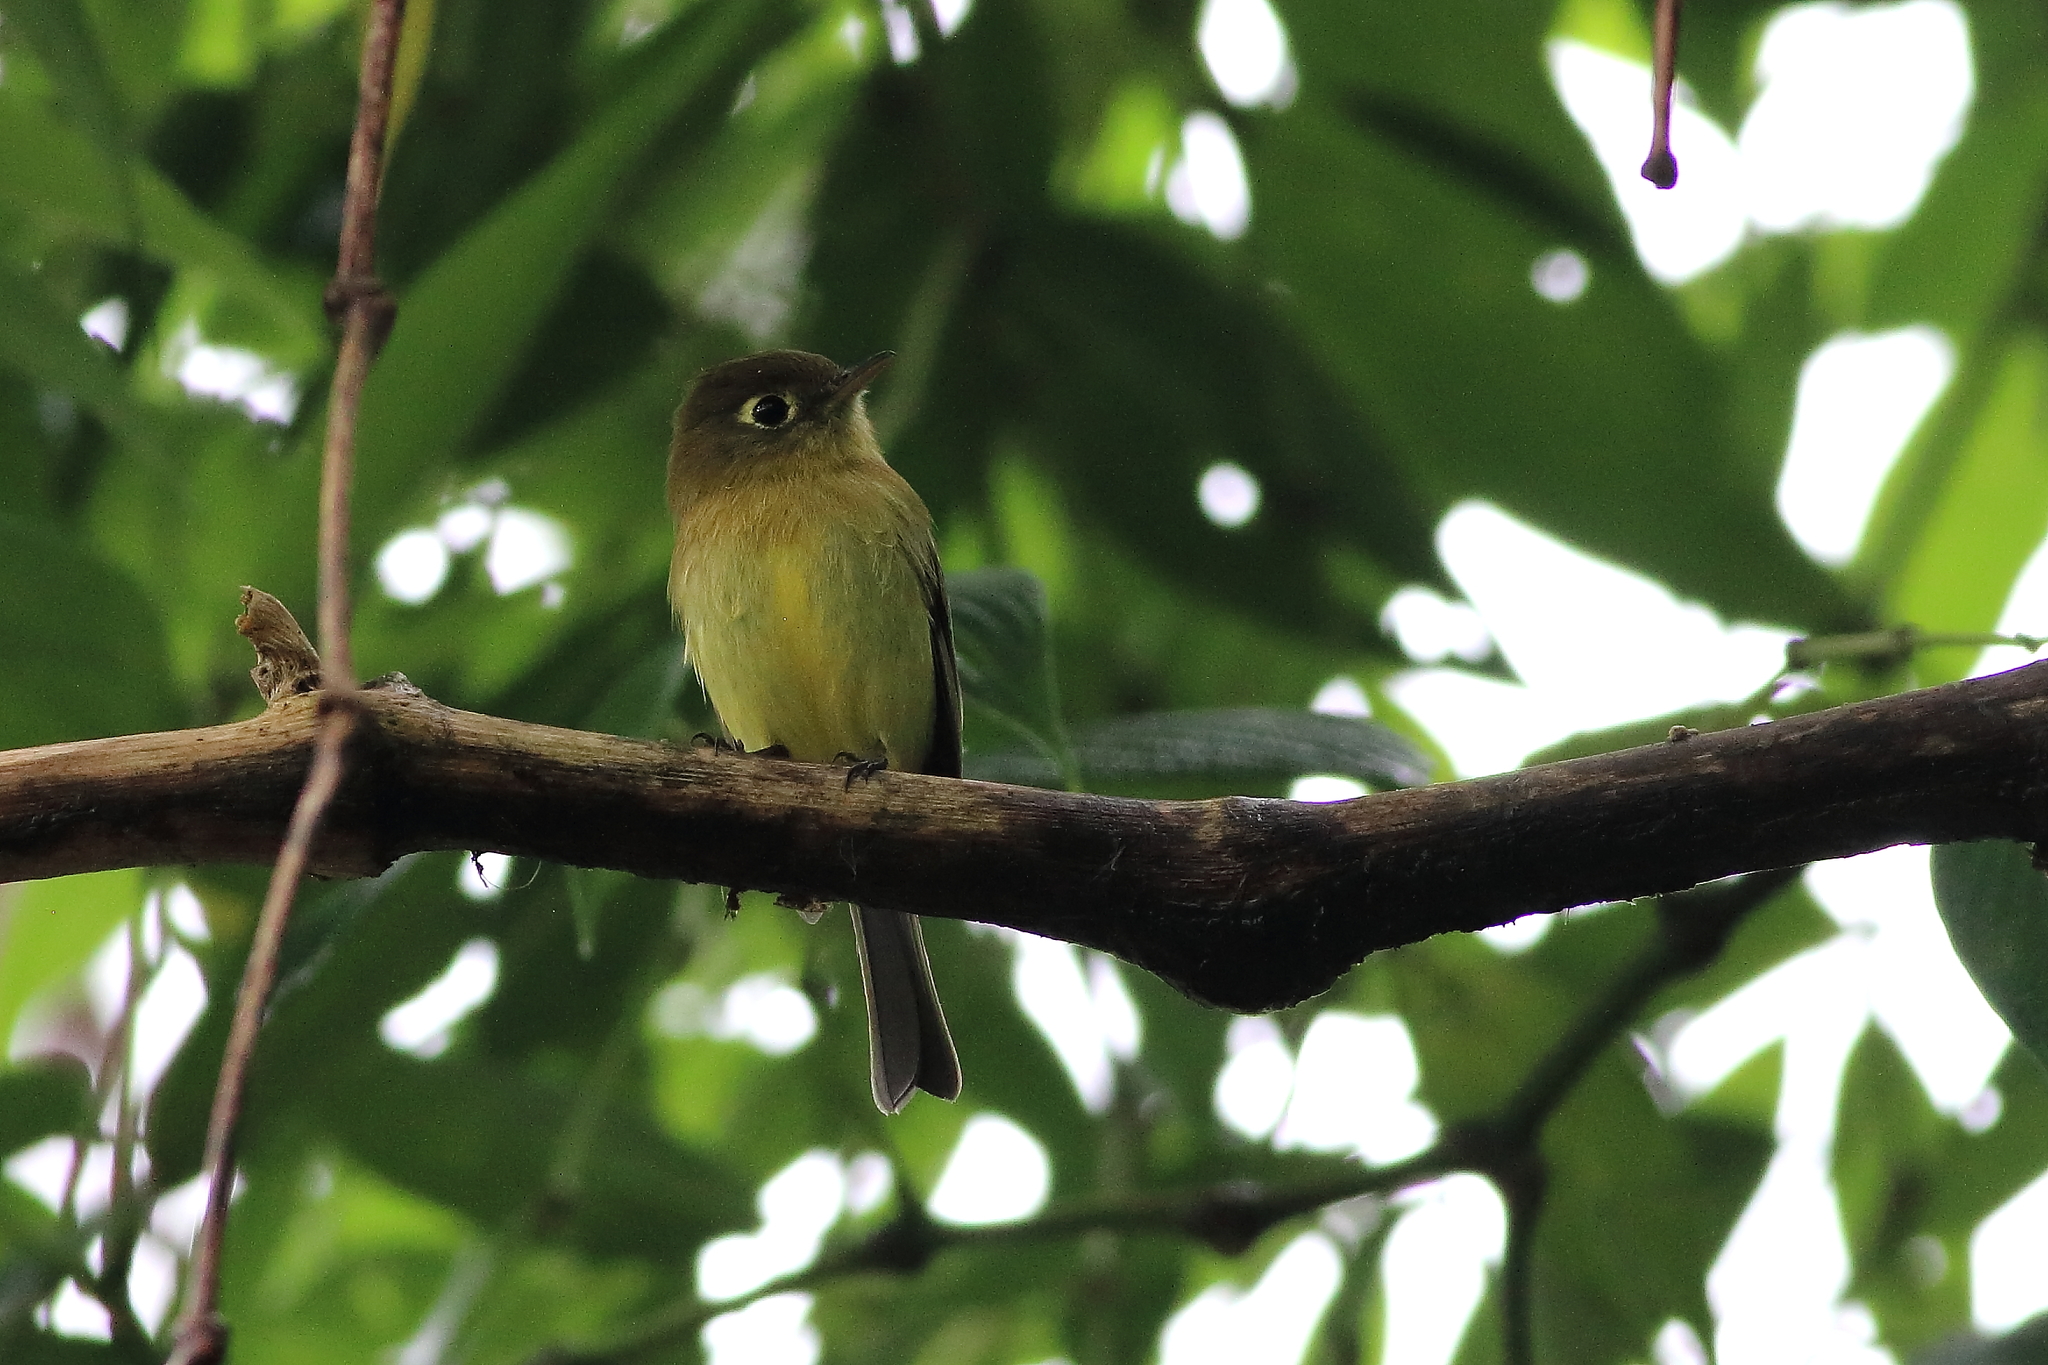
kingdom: Animalia
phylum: Chordata
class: Aves
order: Passeriformes
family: Tyrannidae
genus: Empidonax
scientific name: Empidonax flavescens
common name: Yellowish flycatcher
